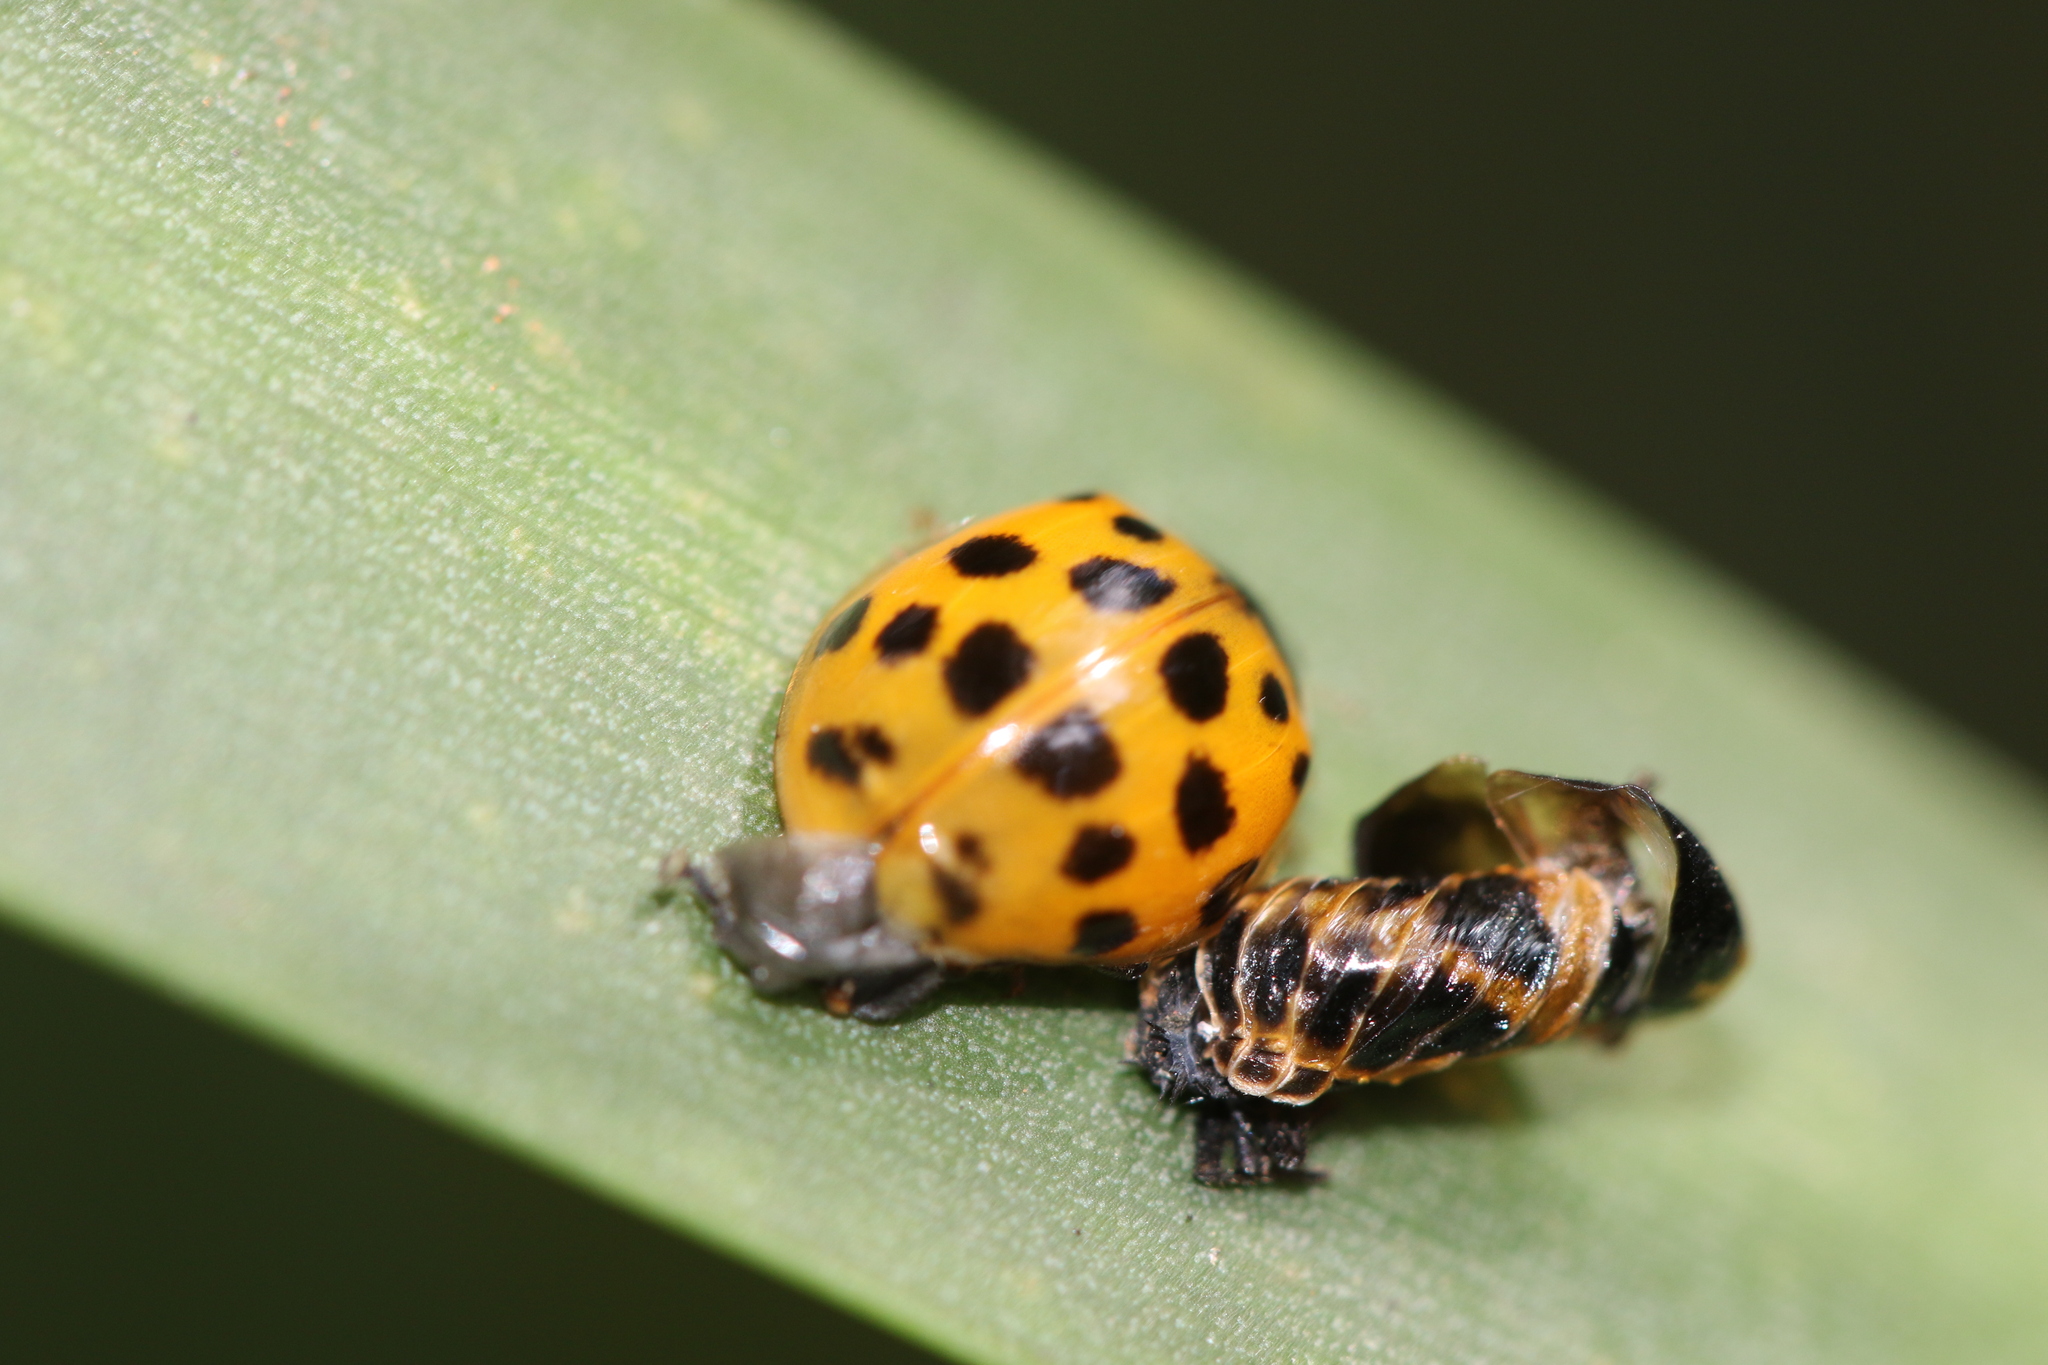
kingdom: Animalia
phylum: Arthropoda
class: Insecta
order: Coleoptera
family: Coccinellidae
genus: Harmonia
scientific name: Harmonia axyridis
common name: Harlequin ladybird
